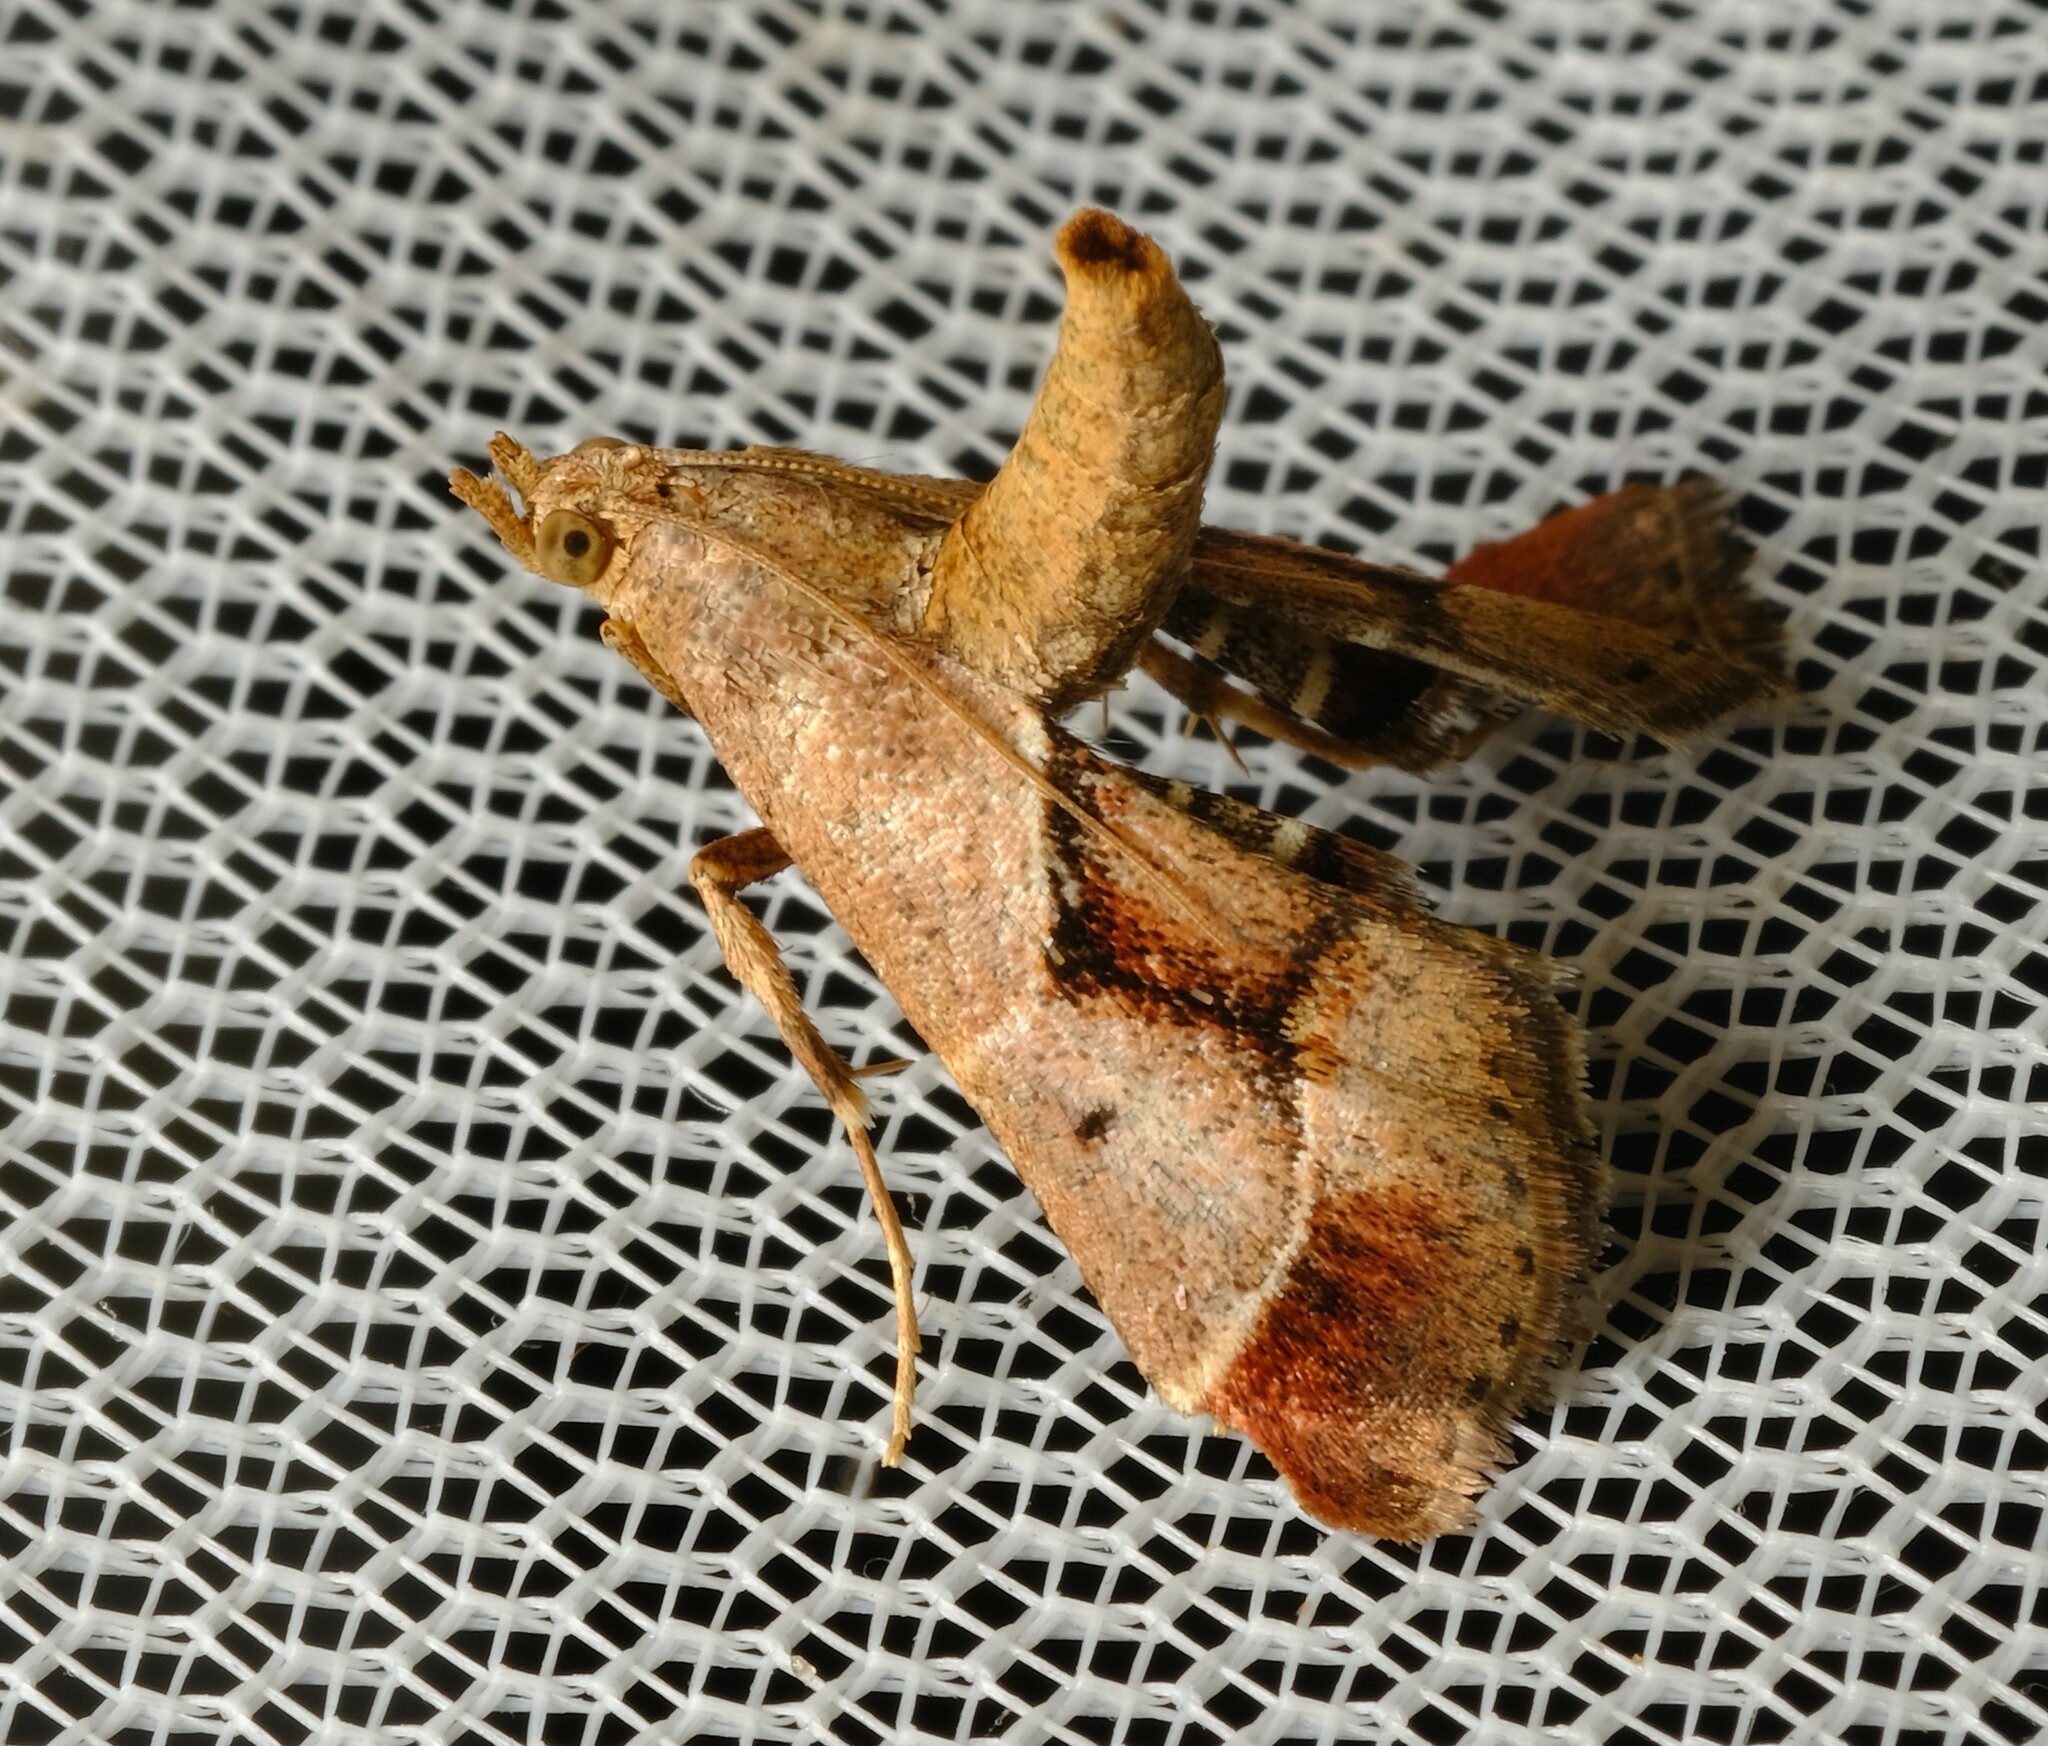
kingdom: Animalia
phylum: Arthropoda
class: Insecta
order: Lepidoptera
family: Pyralidae
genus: Gauna
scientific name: Gauna aegusalis
